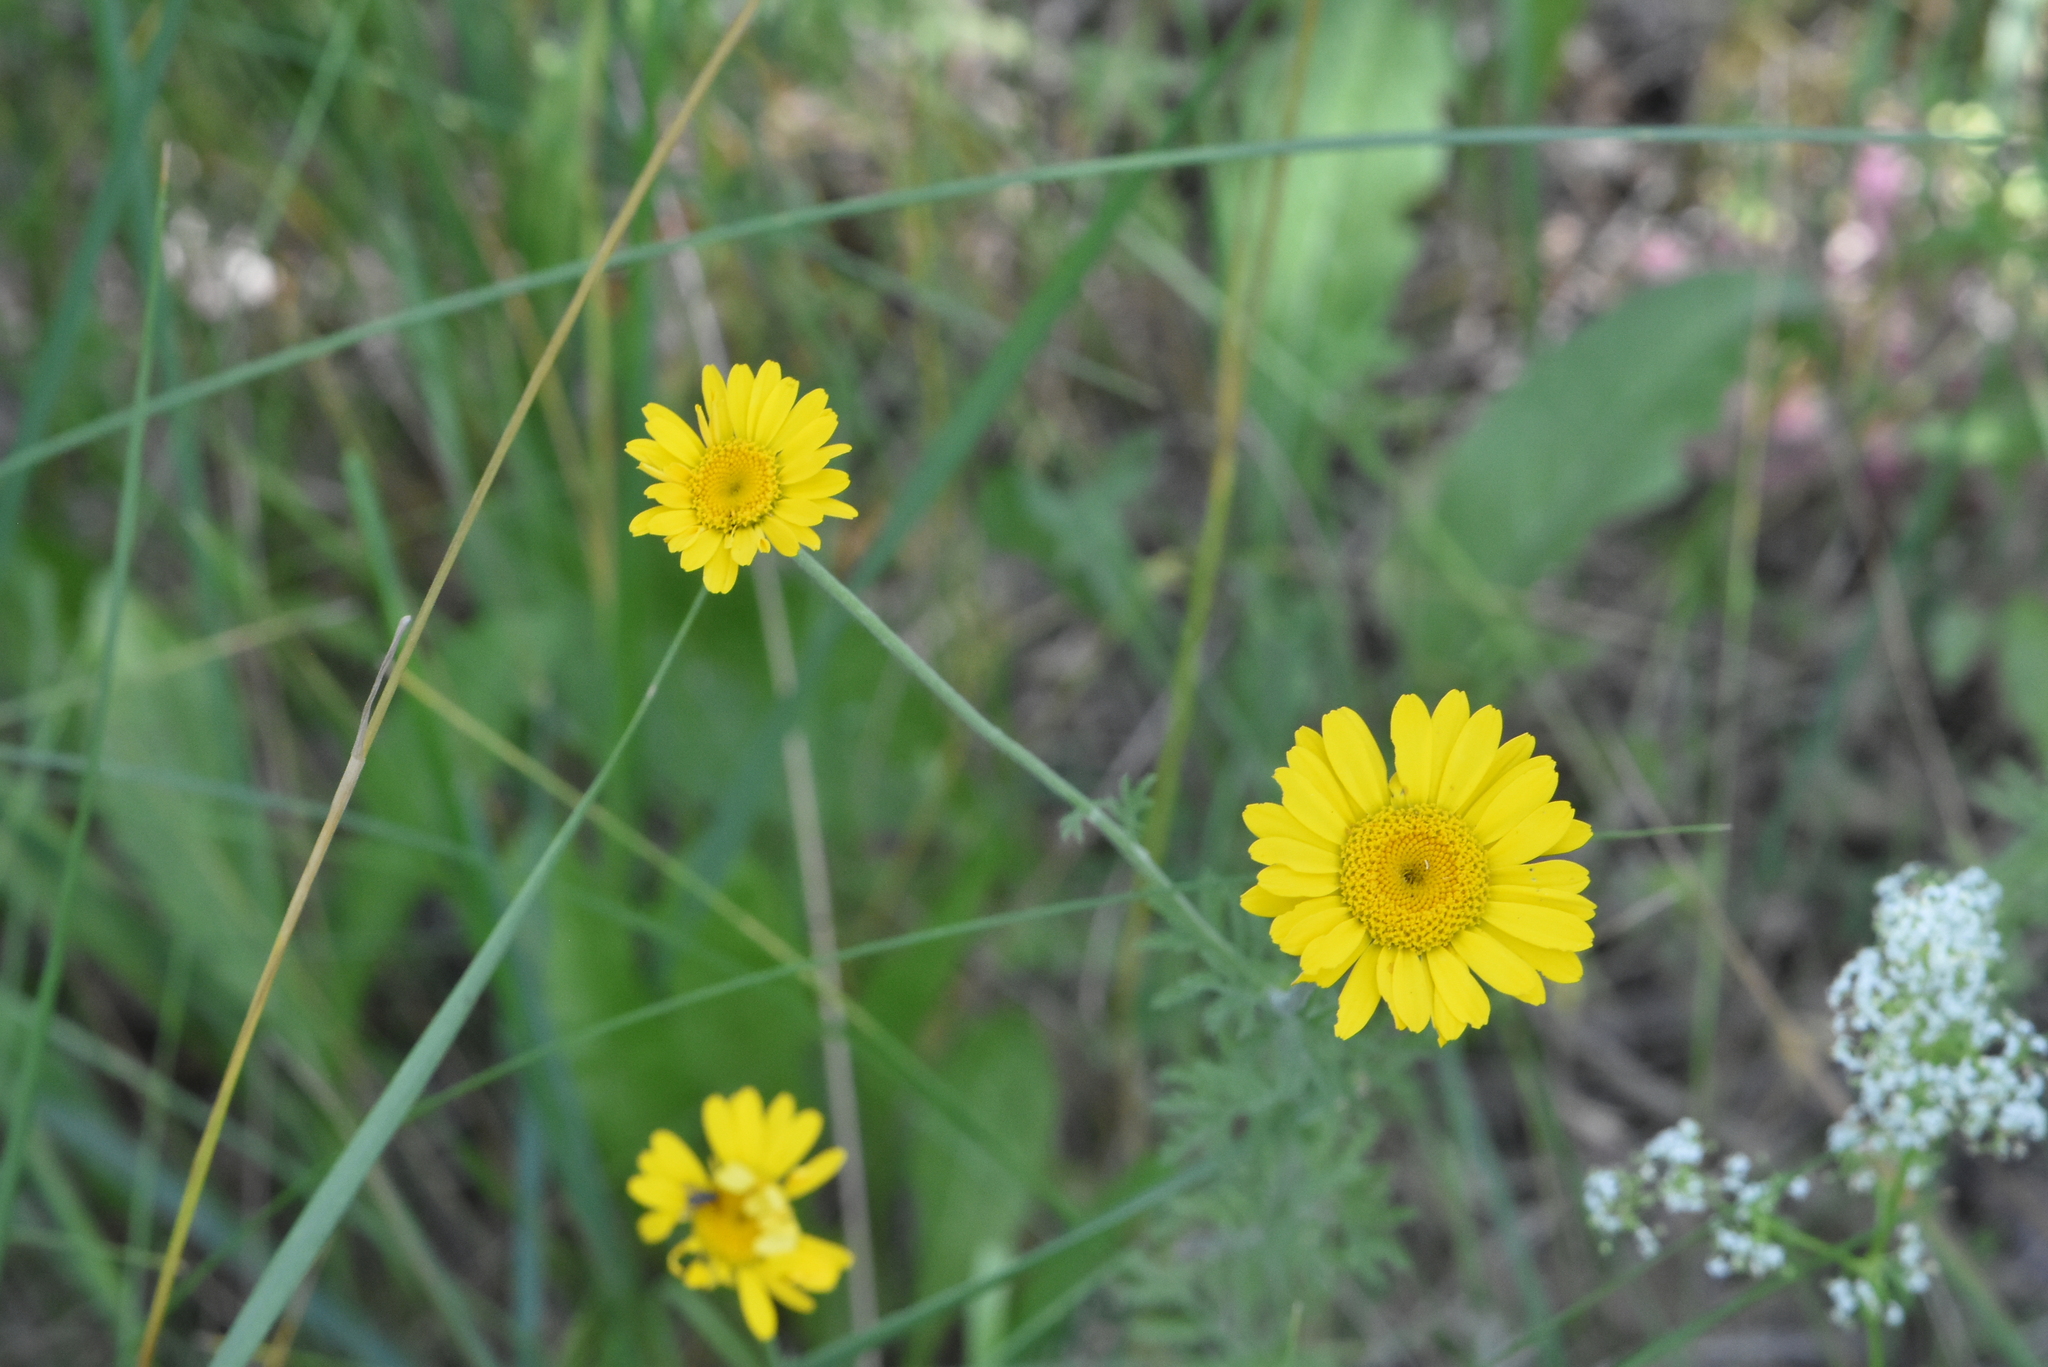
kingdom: Plantae
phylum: Tracheophyta
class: Magnoliopsida
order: Asterales
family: Asteraceae
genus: Cota
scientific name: Cota tinctoria
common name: Golden chamomile
